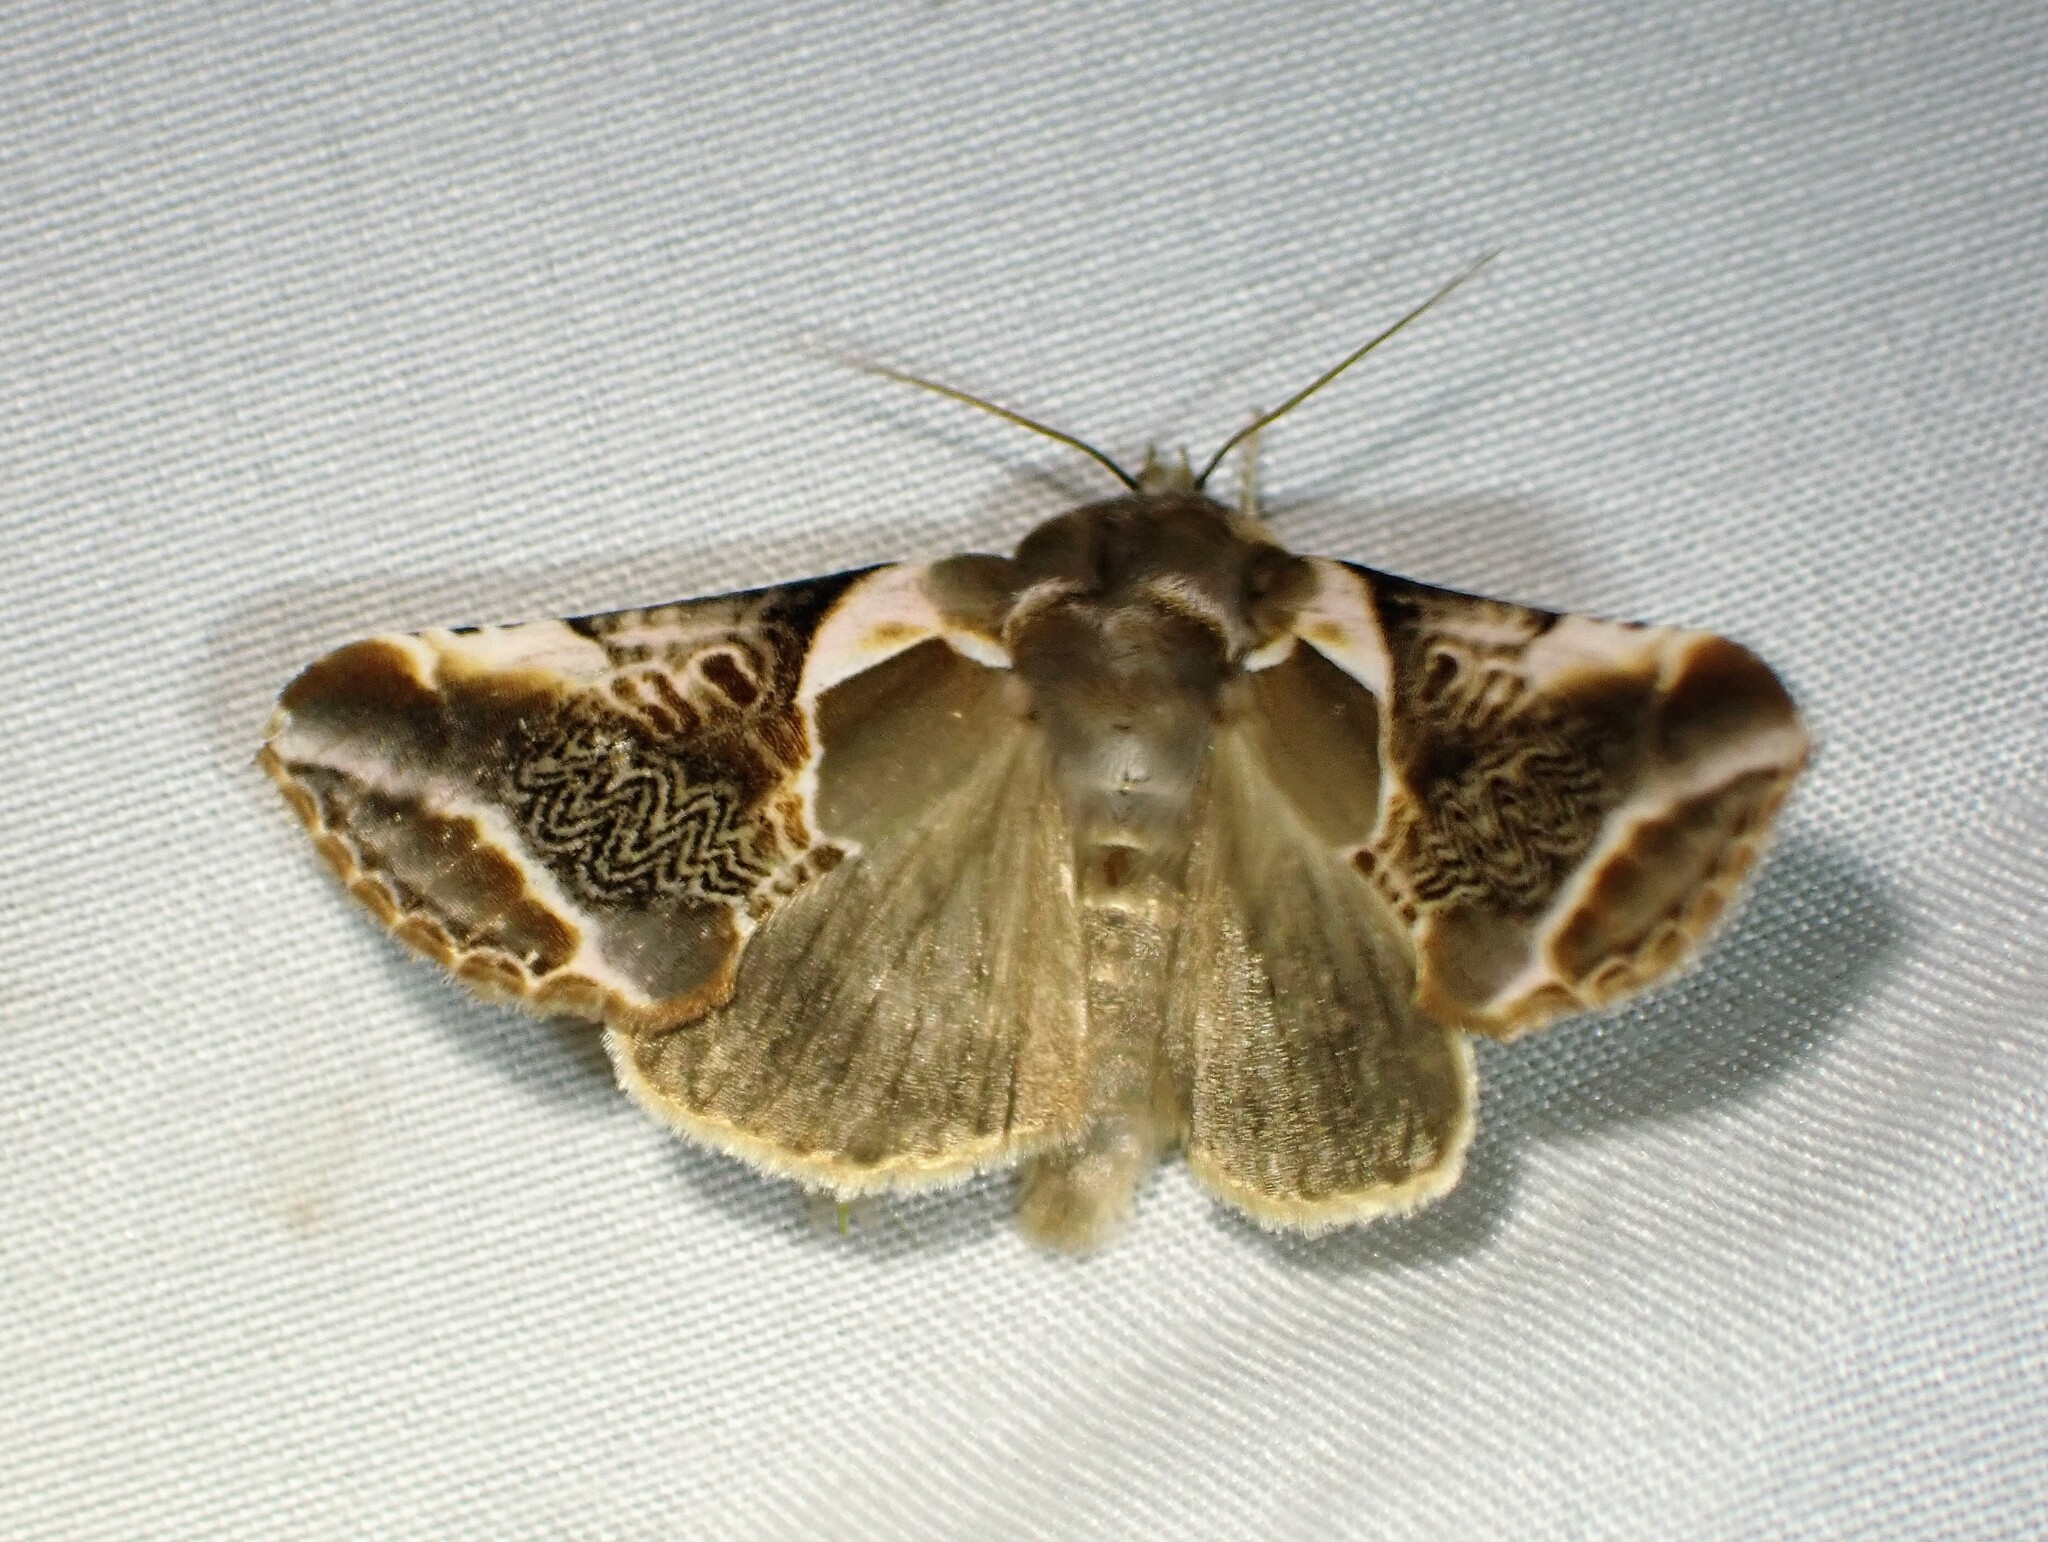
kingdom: Animalia
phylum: Arthropoda
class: Insecta
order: Lepidoptera
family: Drepanidae
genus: Habrosyne
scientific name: Habrosyne scripta
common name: Lettered habrosyne moth
